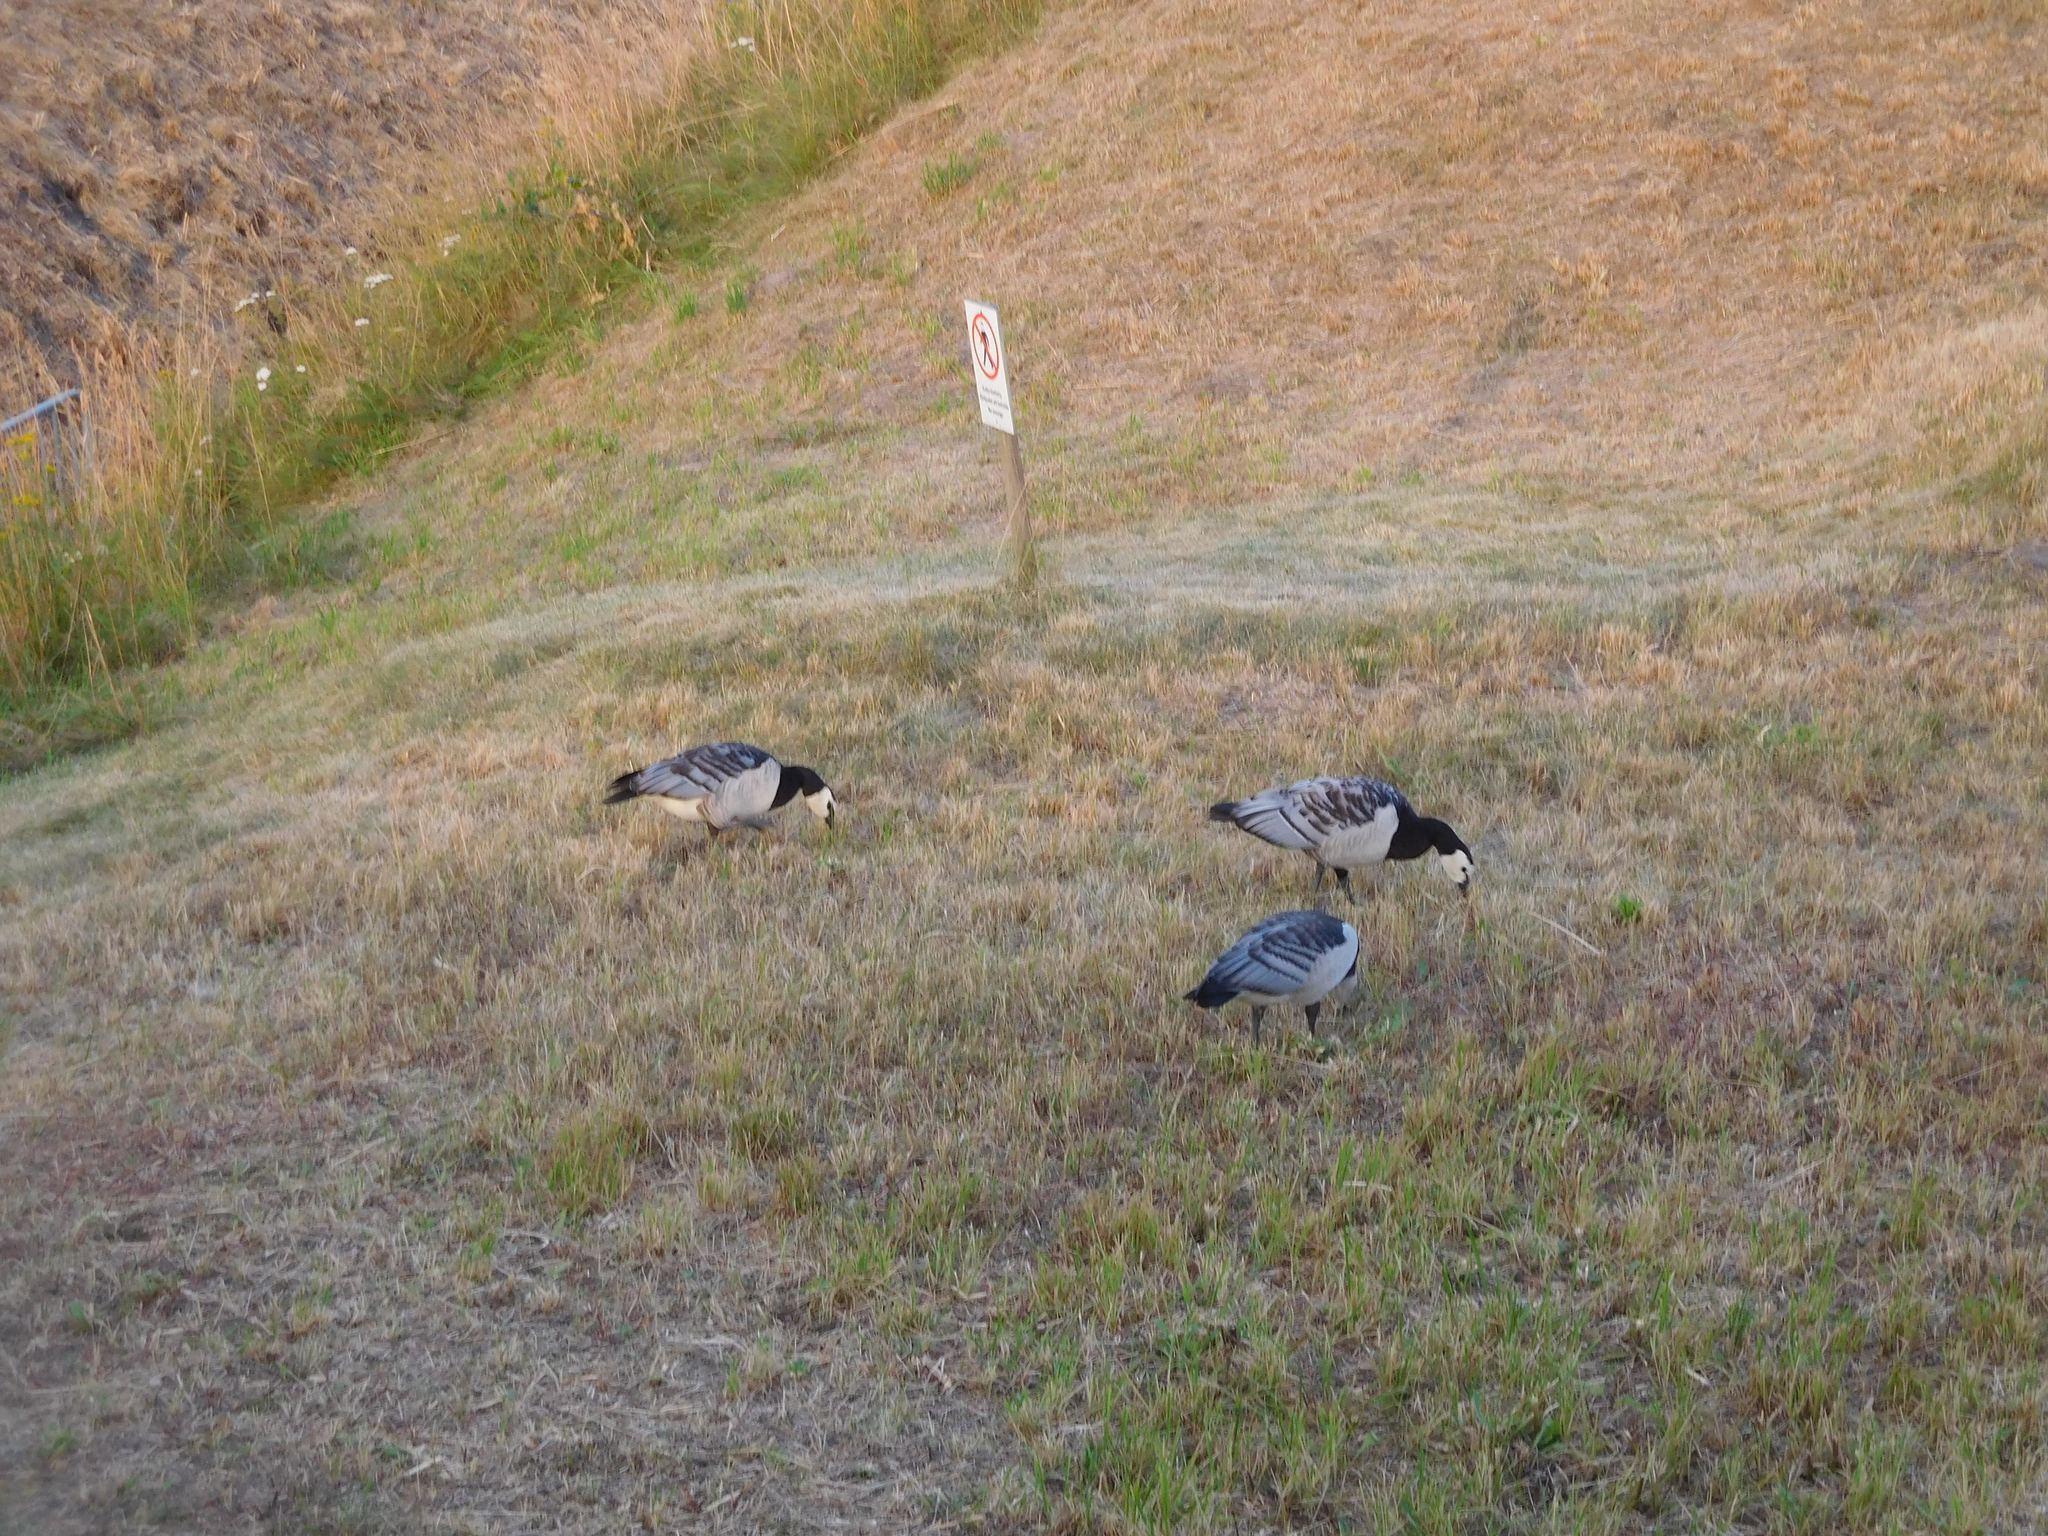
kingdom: Animalia
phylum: Chordata
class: Aves
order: Anseriformes
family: Anatidae
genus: Branta
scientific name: Branta leucopsis
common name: Barnacle goose
